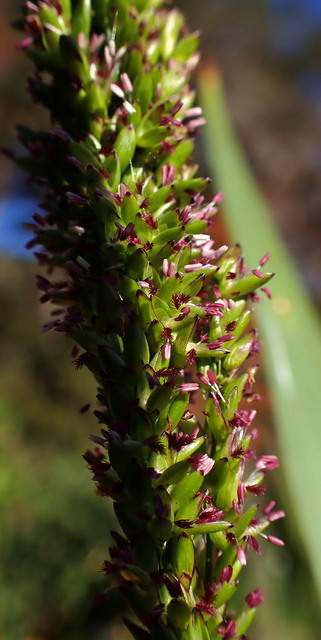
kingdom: Plantae
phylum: Tracheophyta
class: Liliopsida
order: Poales
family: Poaceae
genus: Sacciolepis
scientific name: Sacciolepis striata
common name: American cupscale
